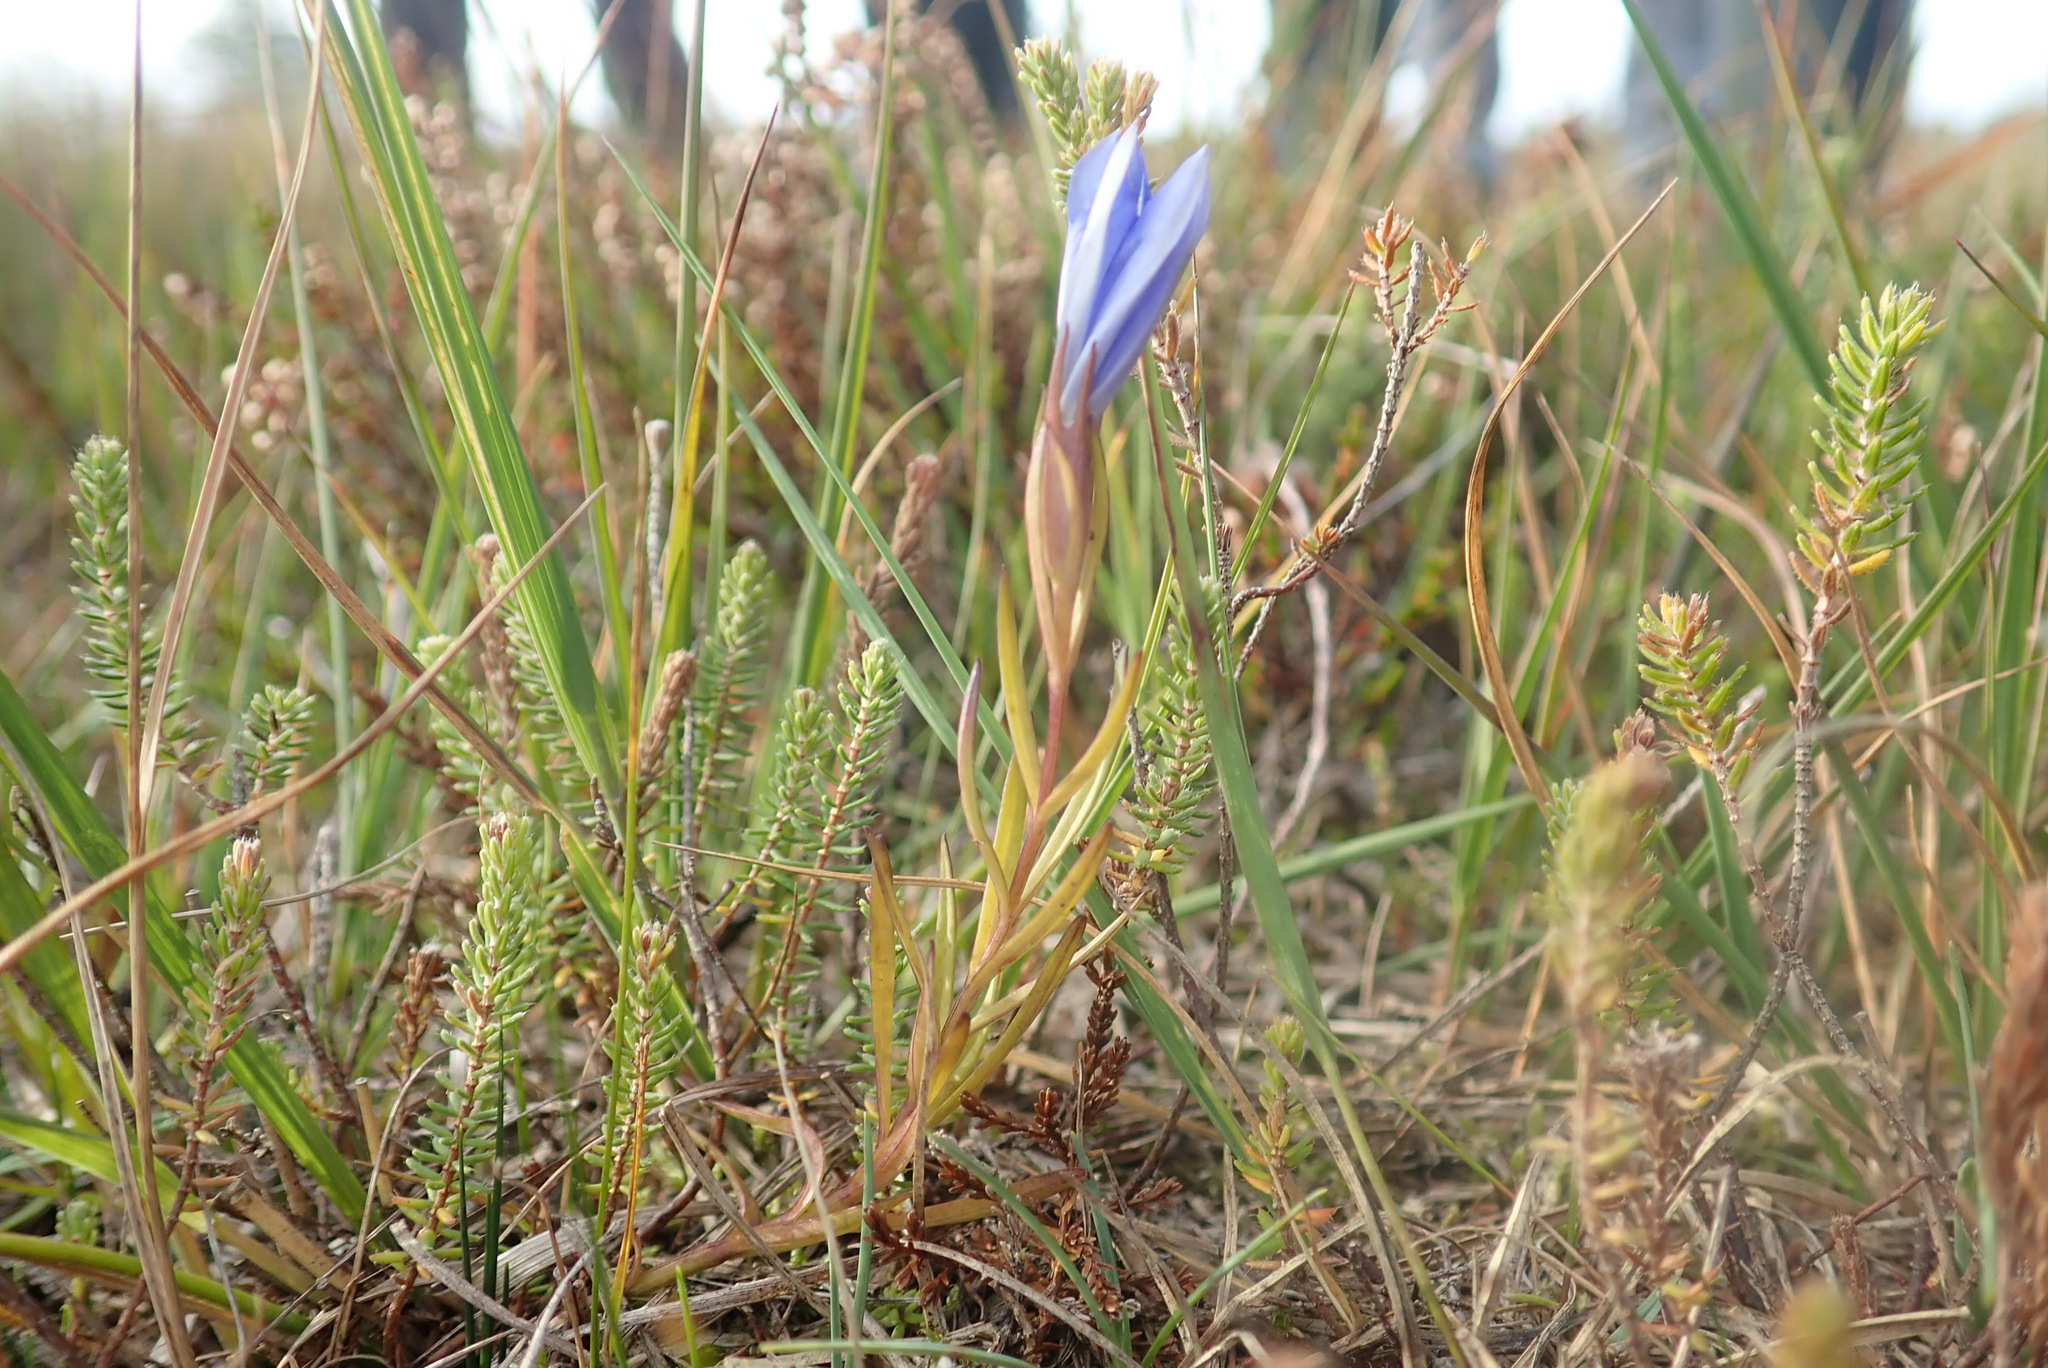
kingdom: Plantae
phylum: Tracheophyta
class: Magnoliopsida
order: Gentianales
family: Gentianaceae
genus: Gentiana
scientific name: Gentiana pneumonanthe
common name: Marsh gentian
